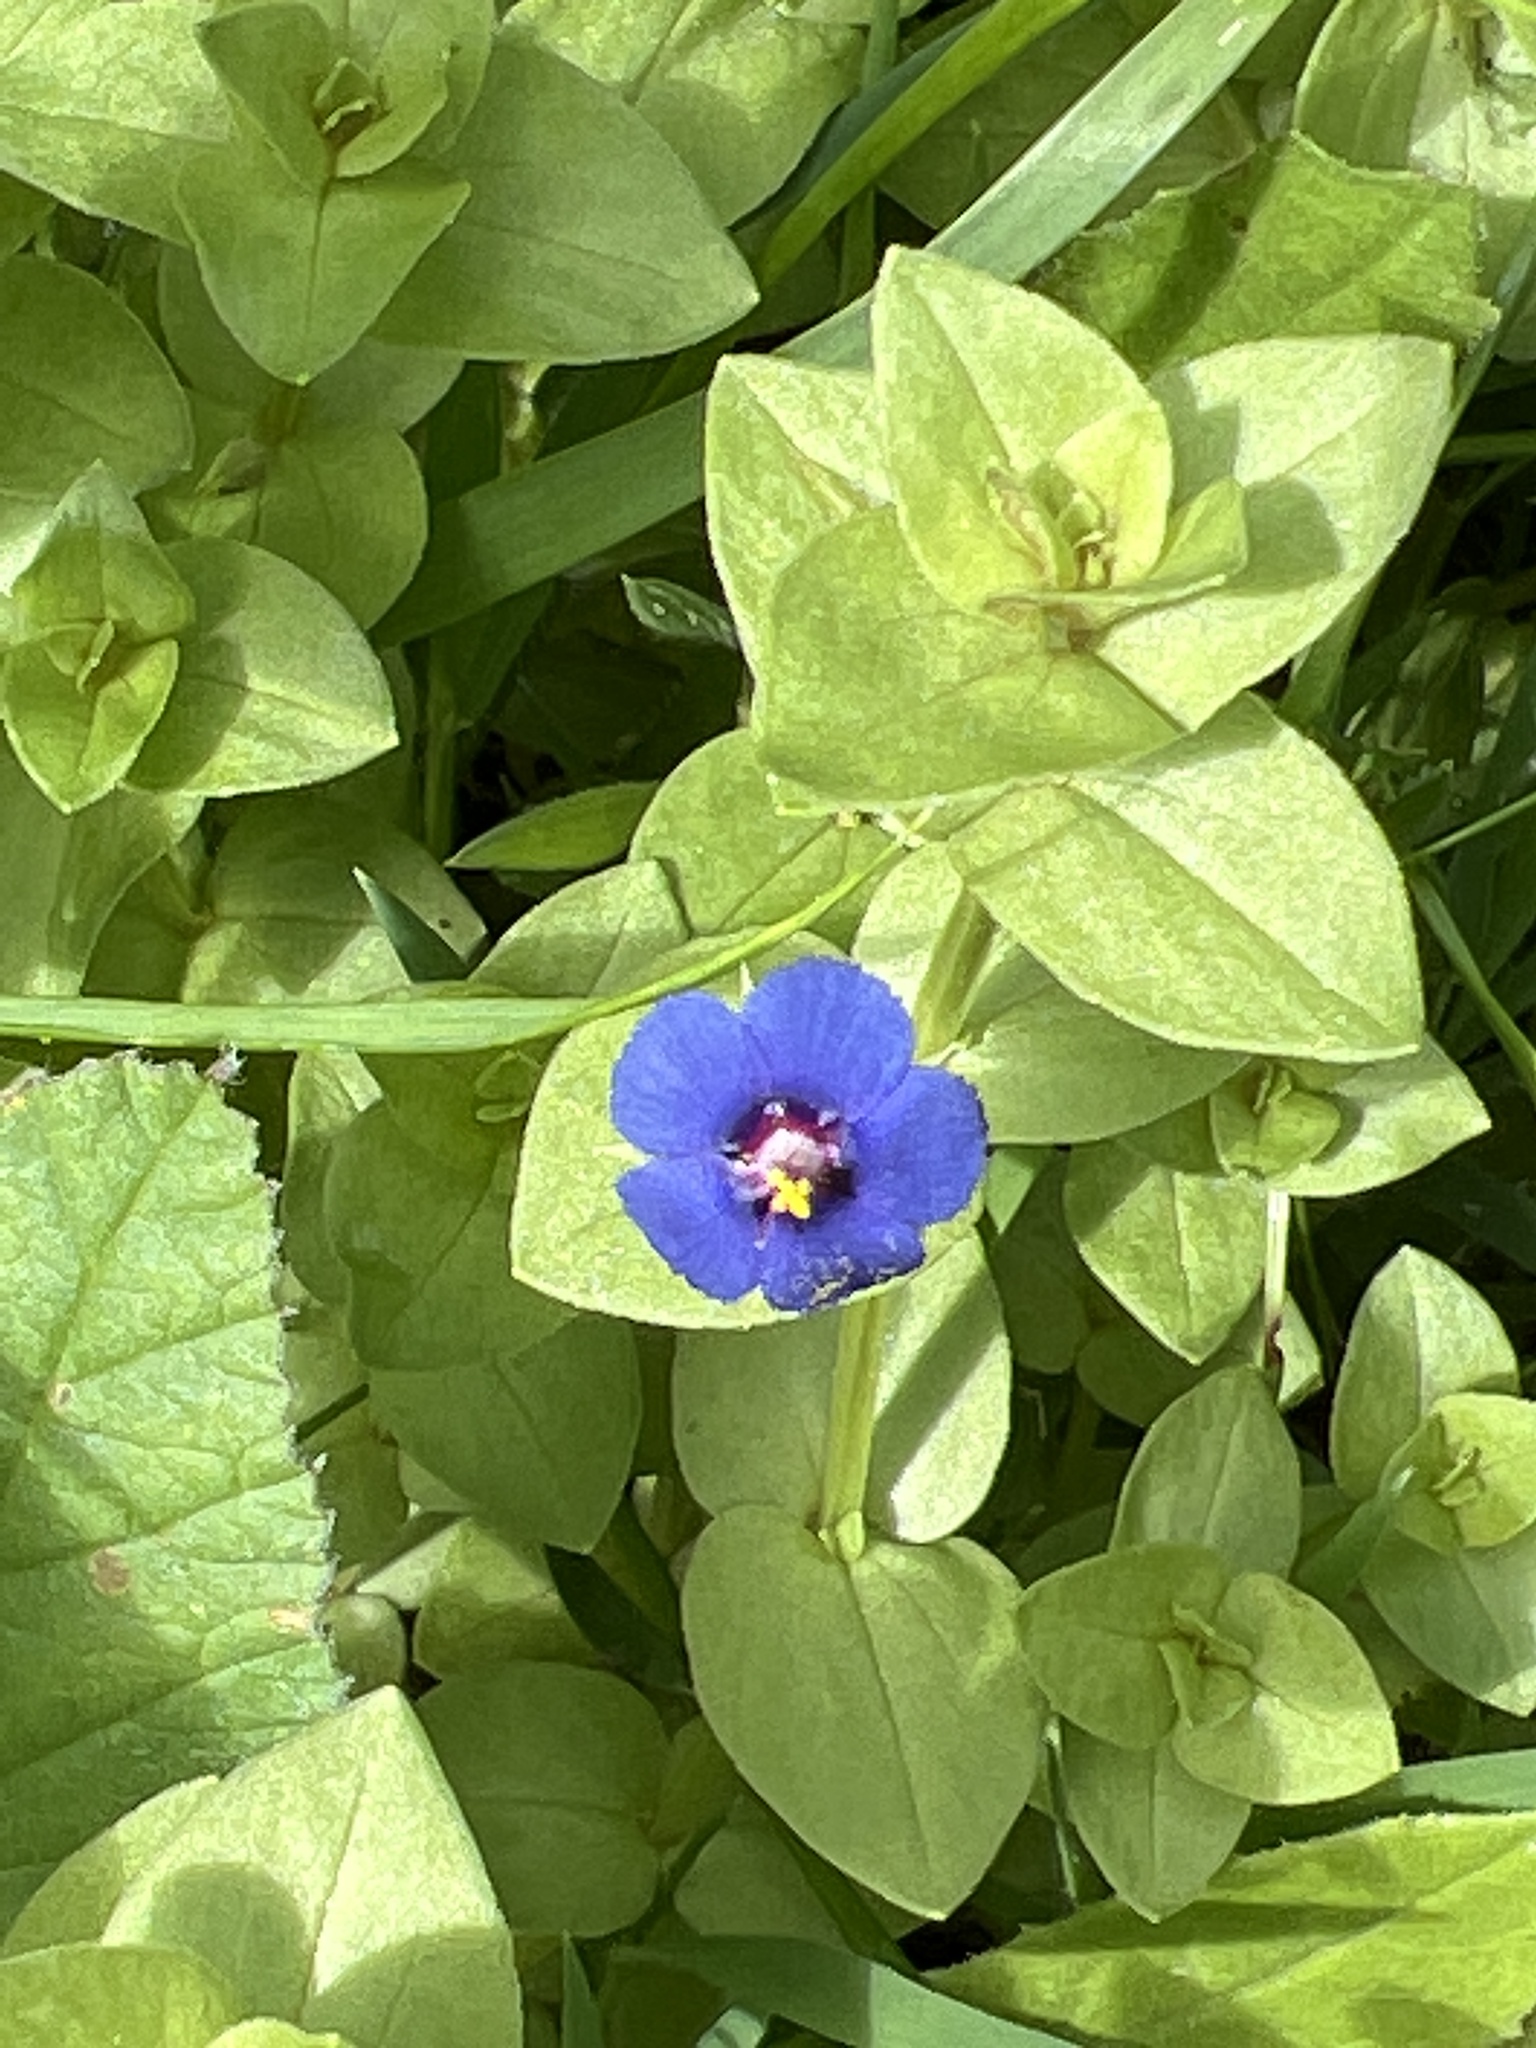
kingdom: Plantae
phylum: Tracheophyta
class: Magnoliopsida
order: Ericales
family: Primulaceae
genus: Lysimachia
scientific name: Lysimachia loeflingii
